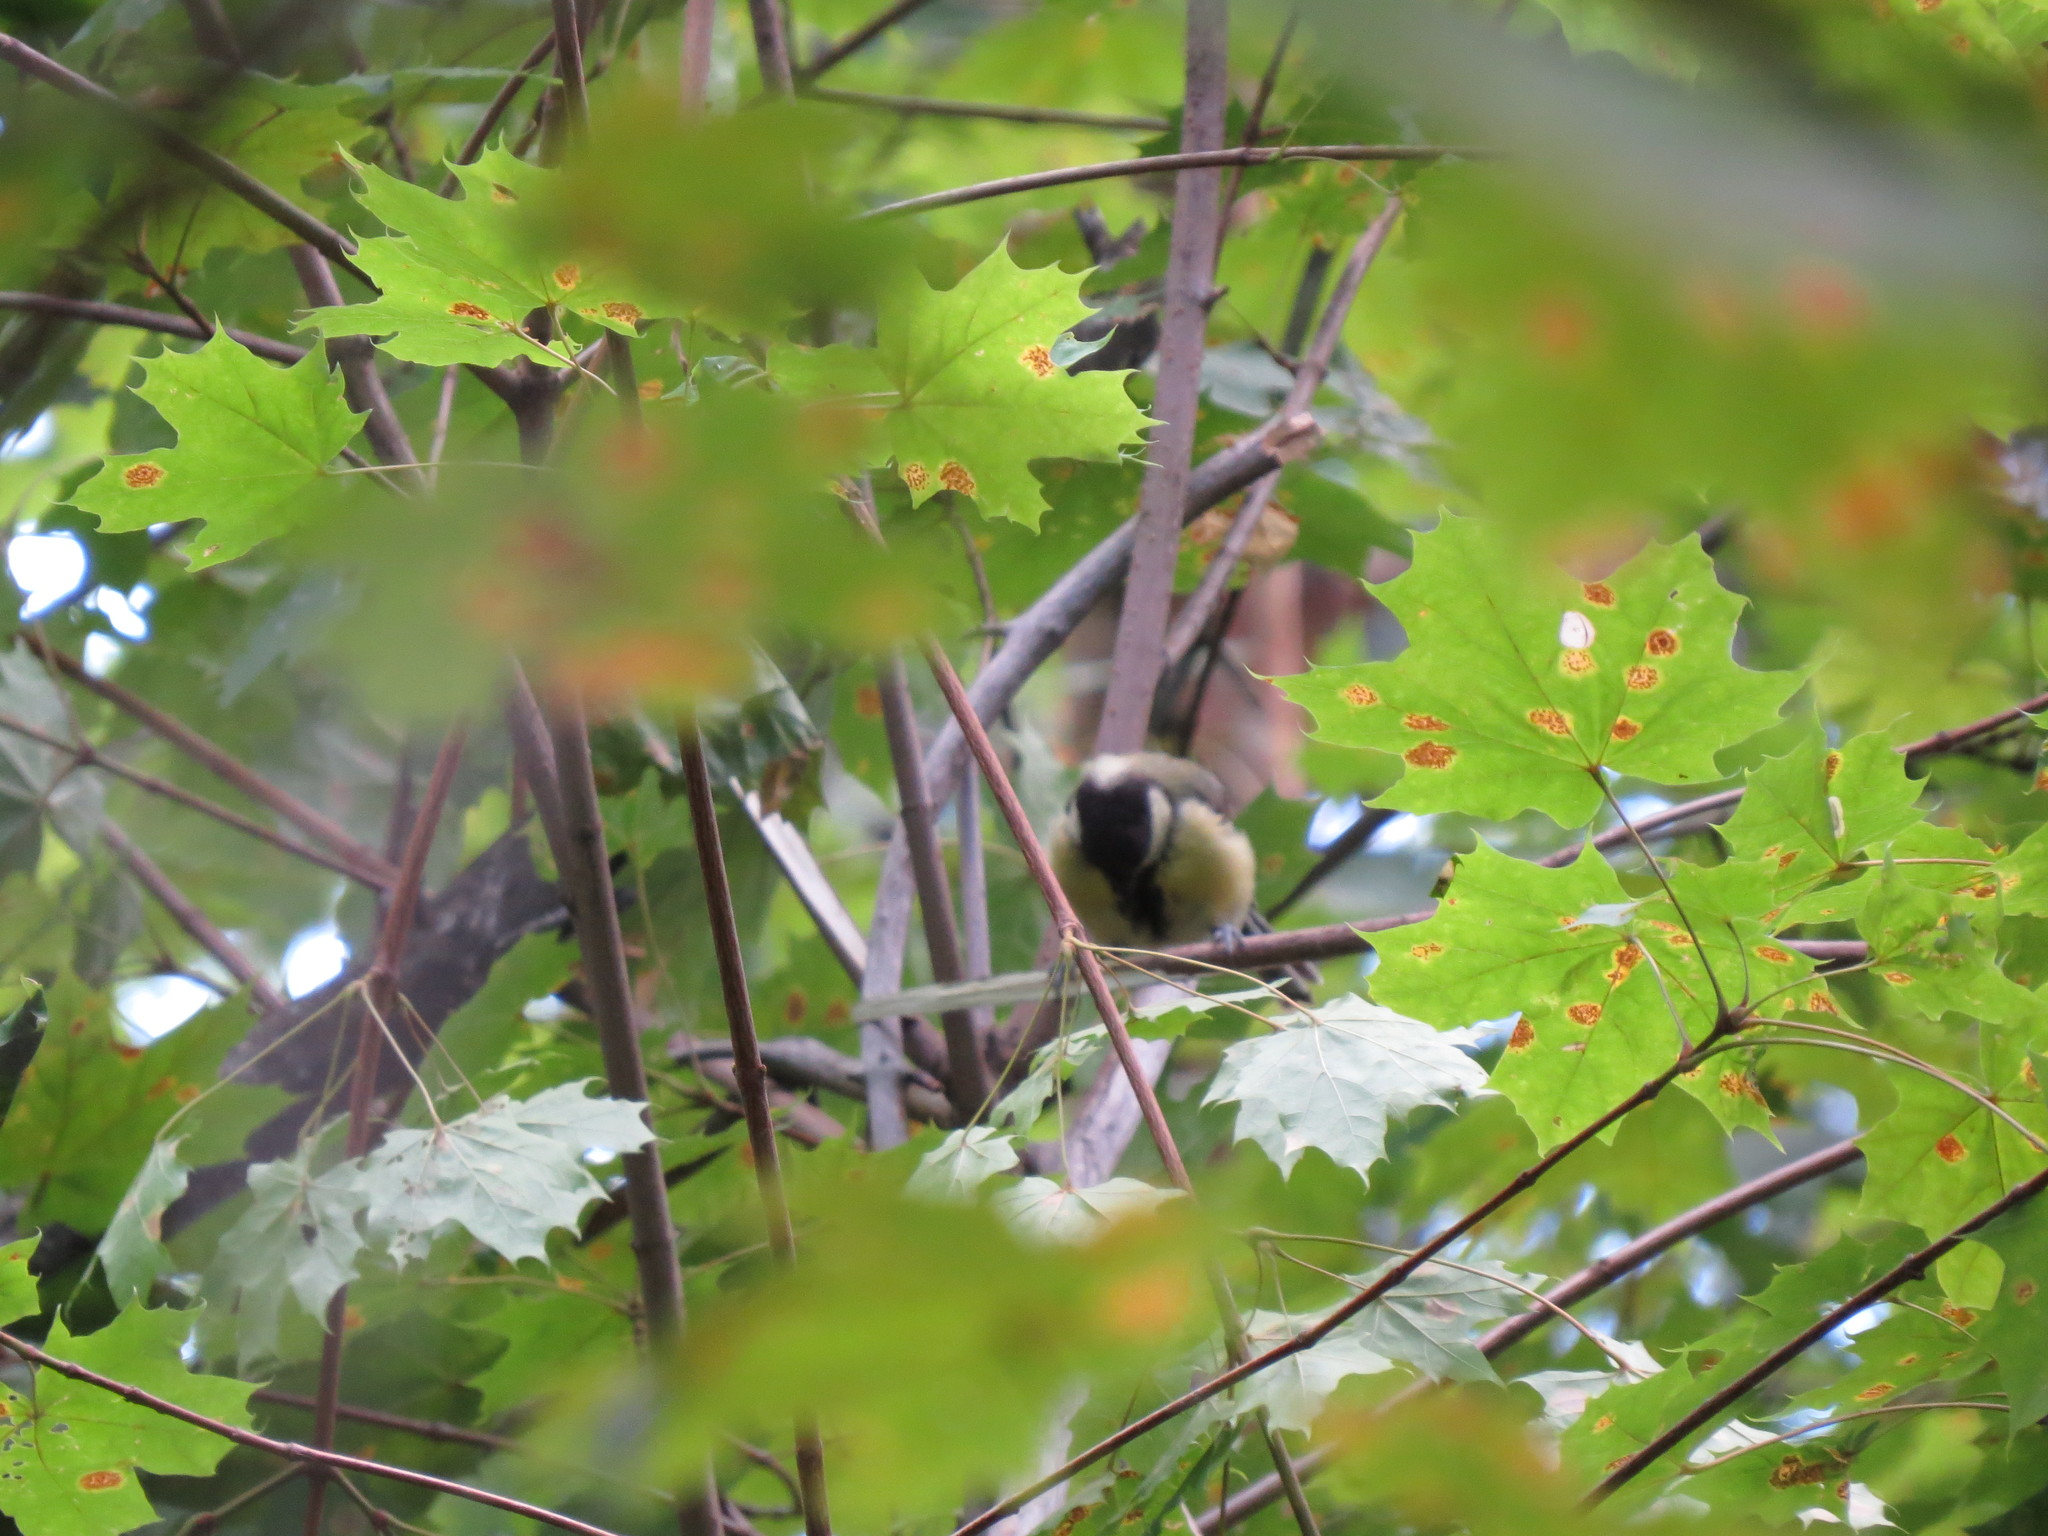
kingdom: Animalia
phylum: Chordata
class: Aves
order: Passeriformes
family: Paridae
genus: Parus
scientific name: Parus major
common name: Great tit
